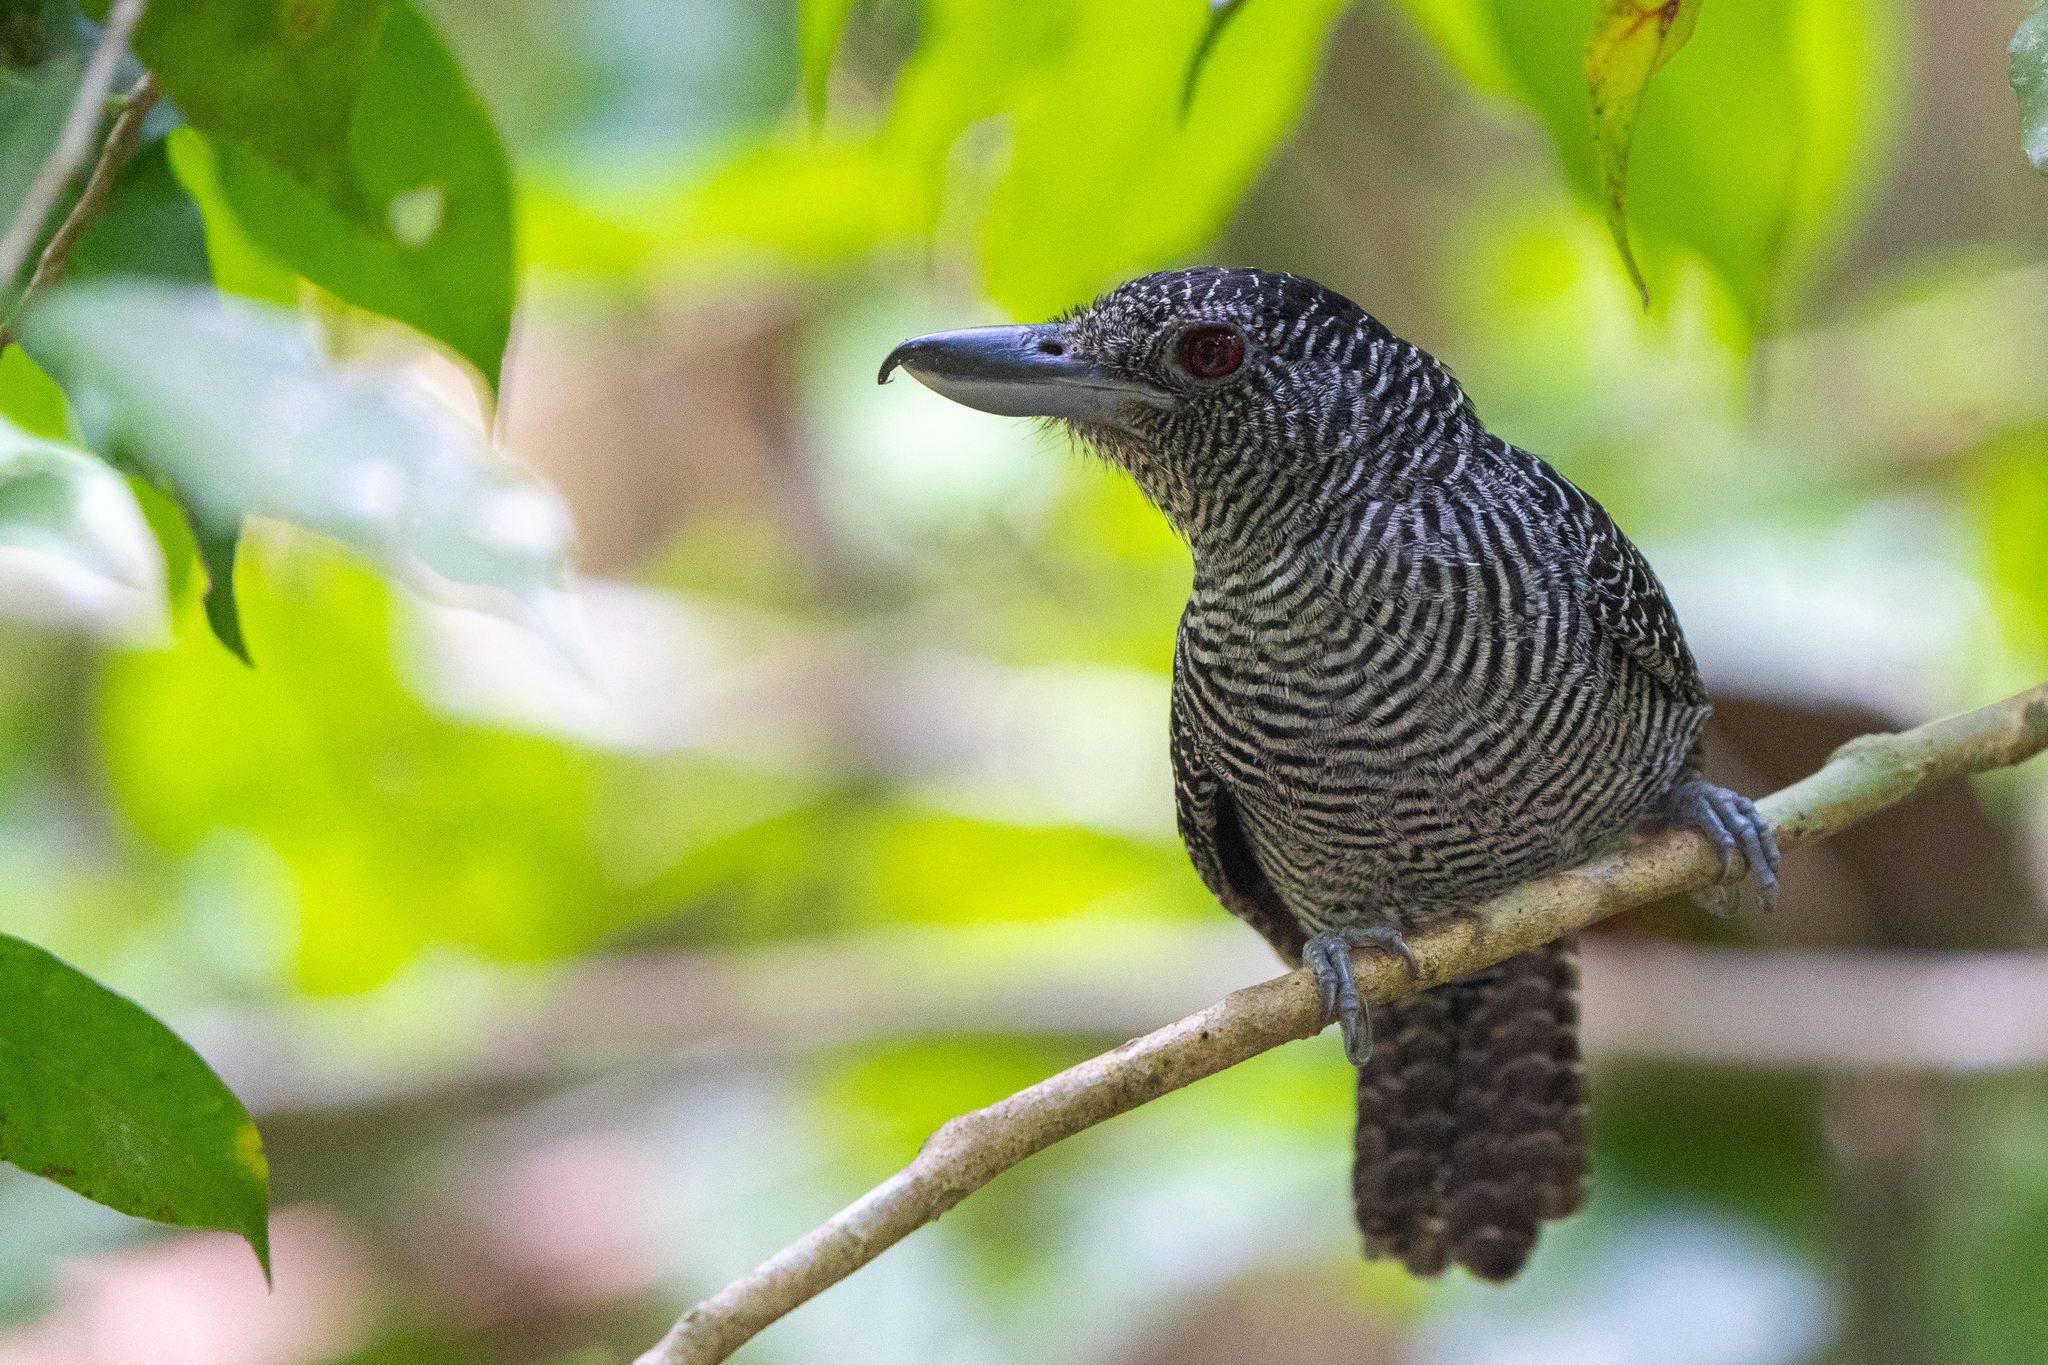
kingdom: Animalia
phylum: Chordata
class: Aves
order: Passeriformes
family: Thamnophilidae
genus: Cymbilaimus
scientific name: Cymbilaimus lineatus
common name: Fasciated antshrike
